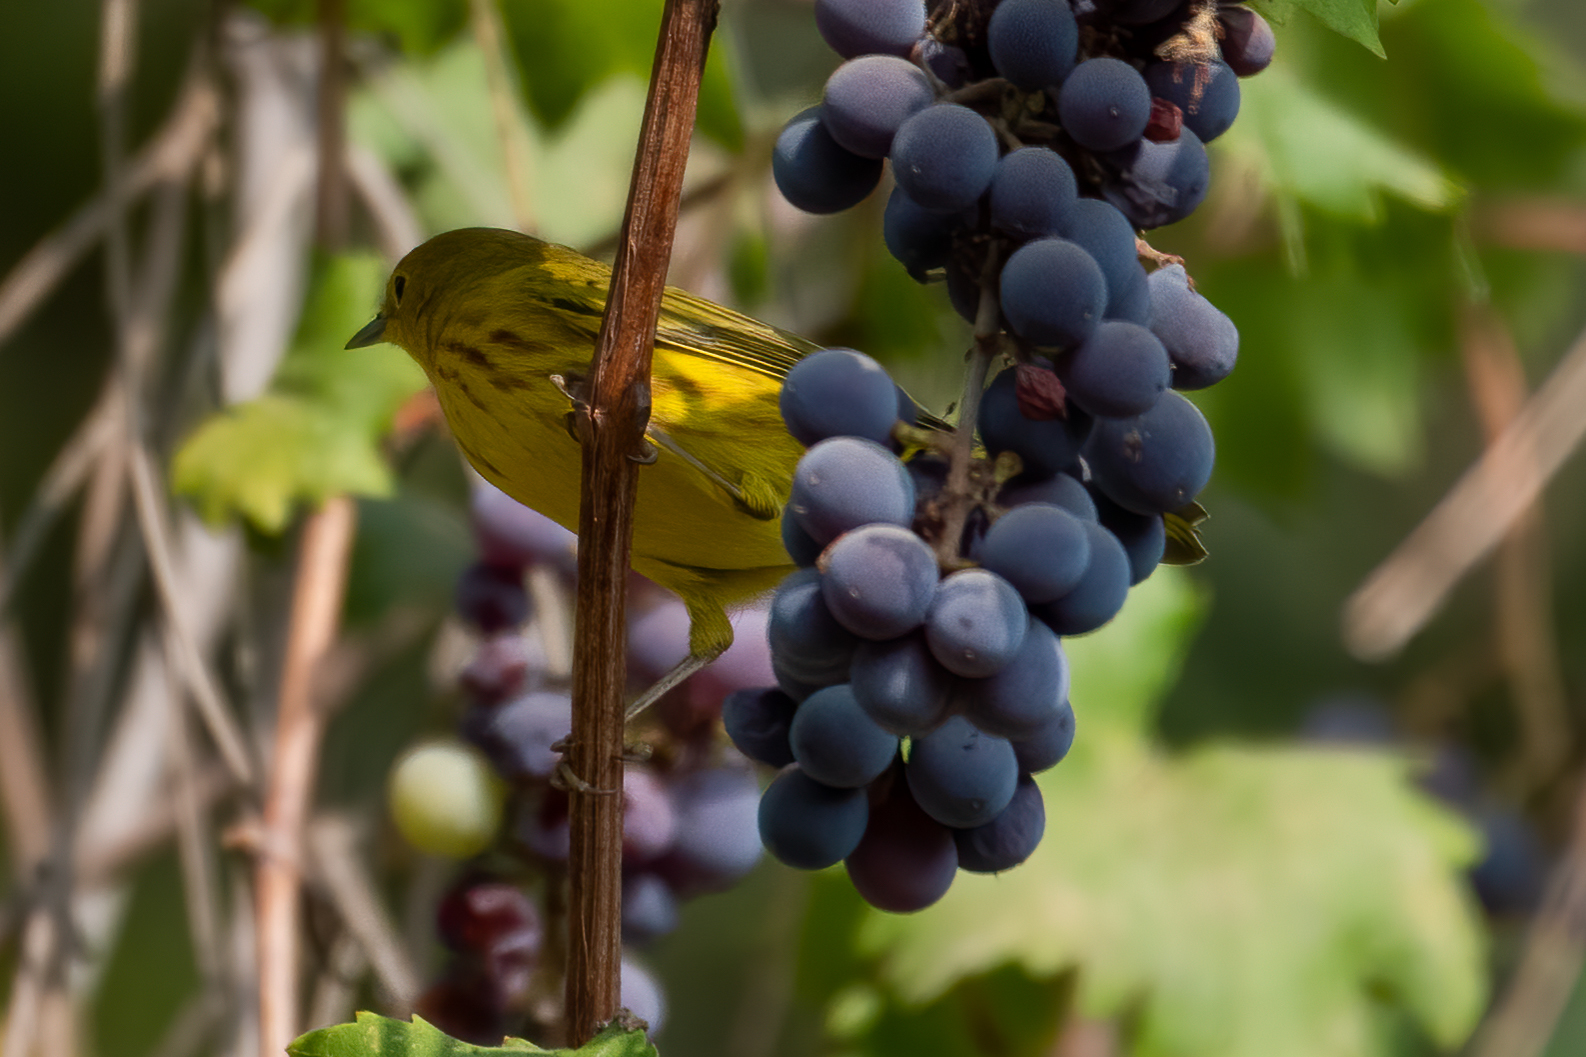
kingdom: Animalia
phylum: Chordata
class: Aves
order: Passeriformes
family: Parulidae
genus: Setophaga
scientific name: Setophaga petechia
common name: Yellow warbler
